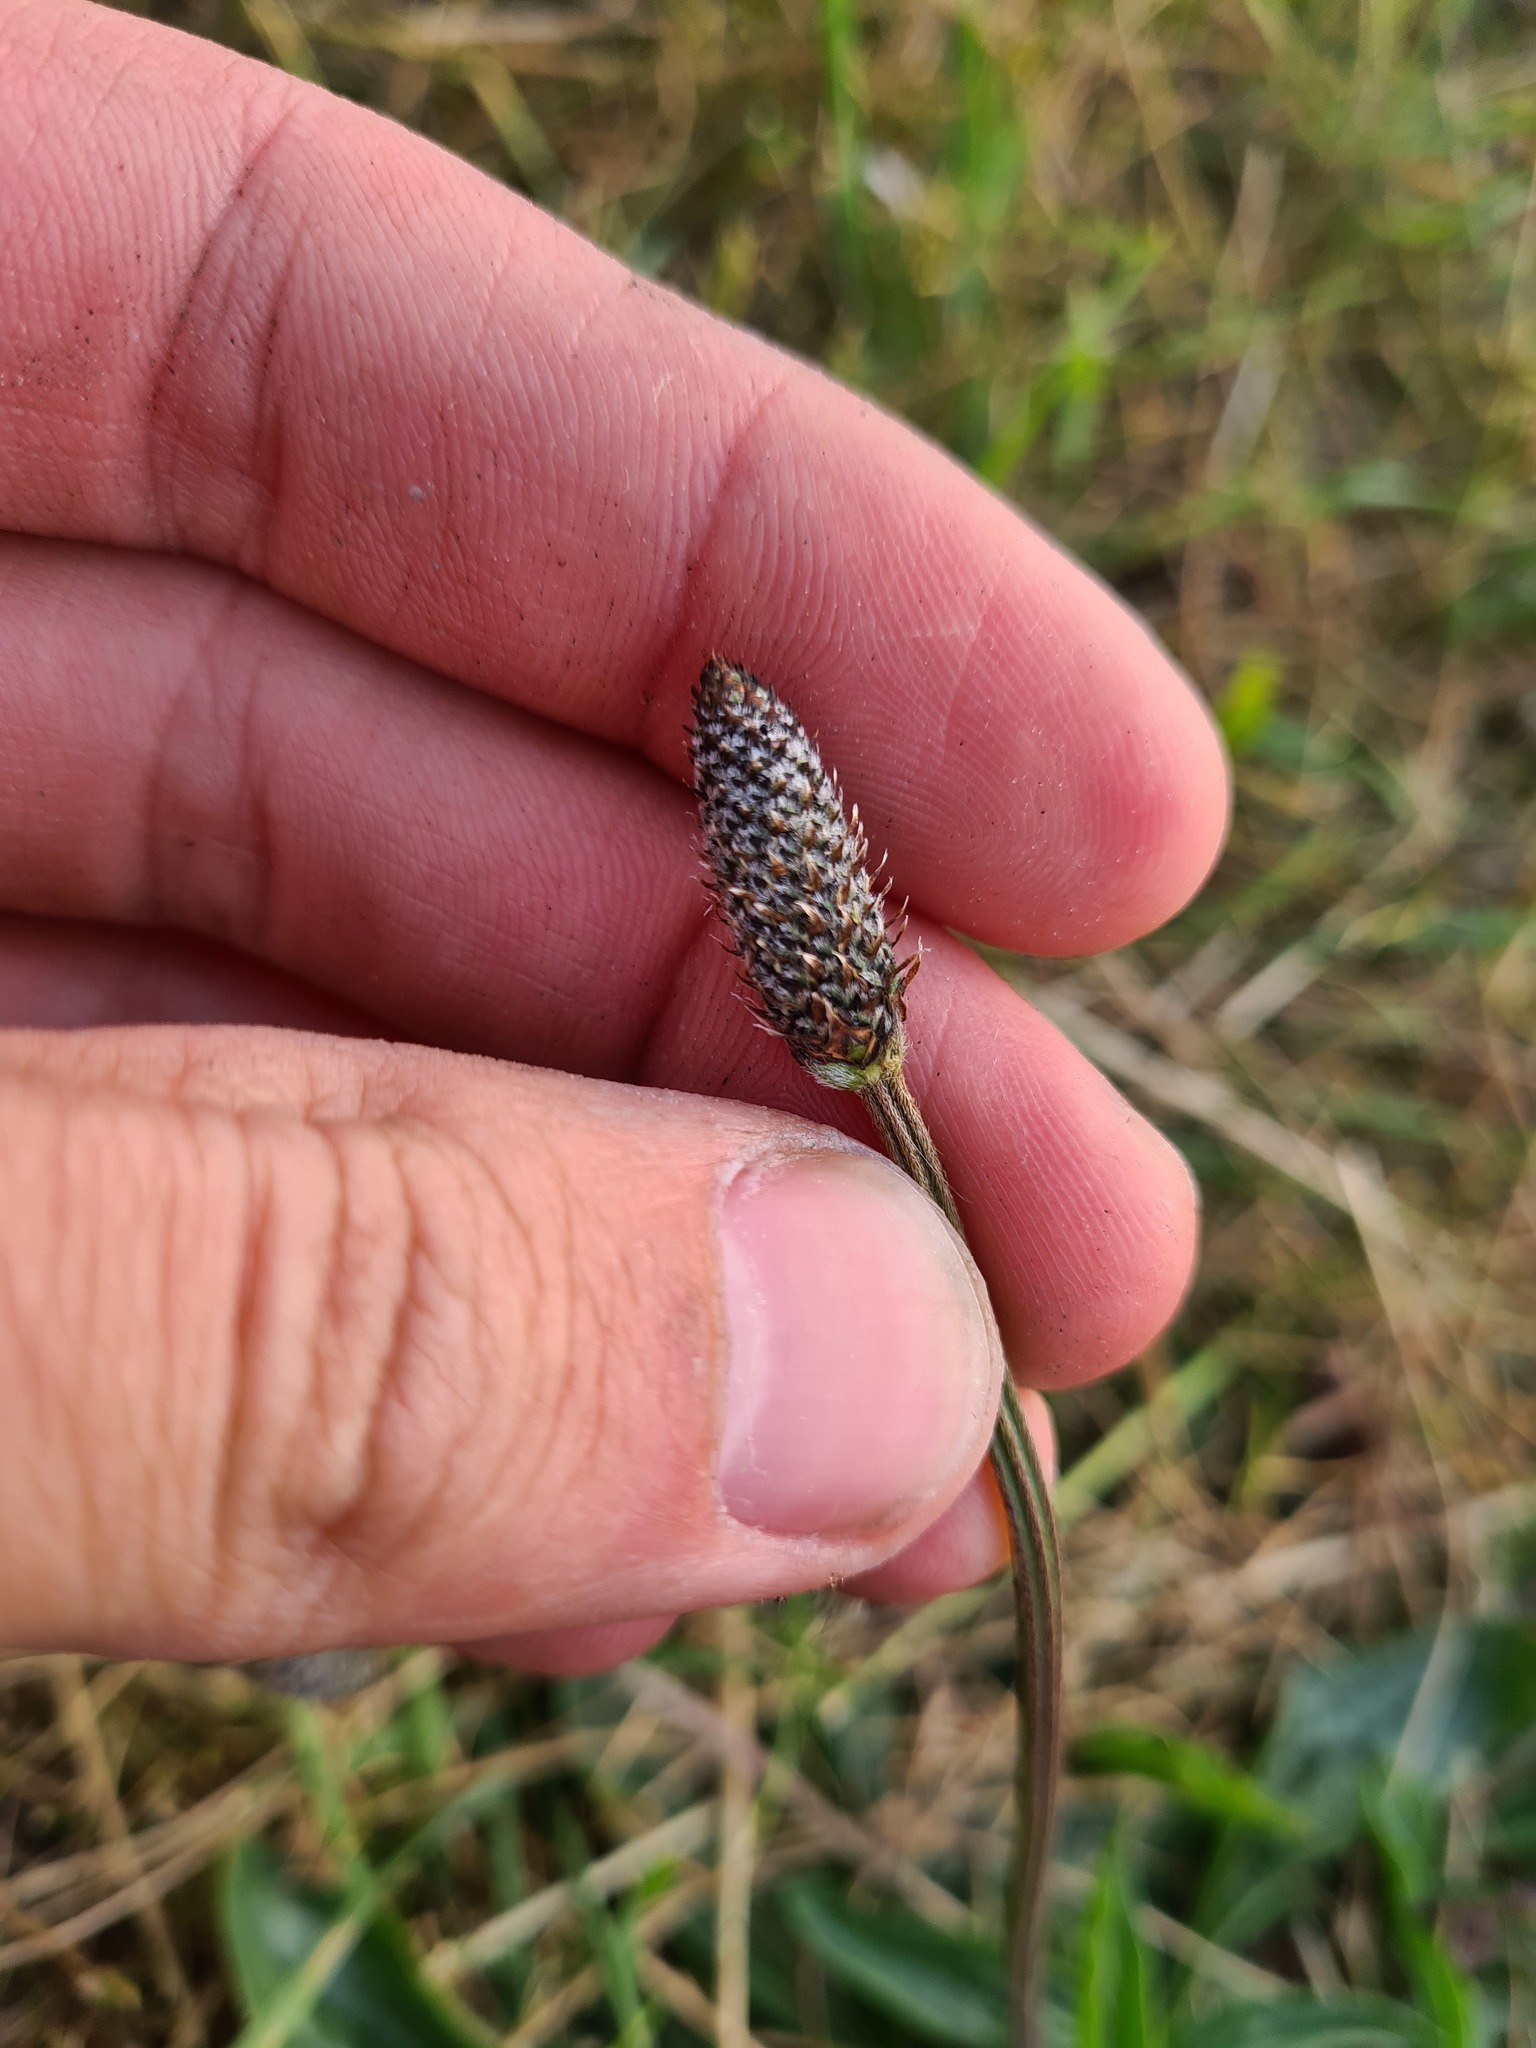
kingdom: Plantae
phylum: Tracheophyta
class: Magnoliopsida
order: Lamiales
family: Plantaginaceae
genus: Plantago
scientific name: Plantago lanceolata
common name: Ribwort plantain
